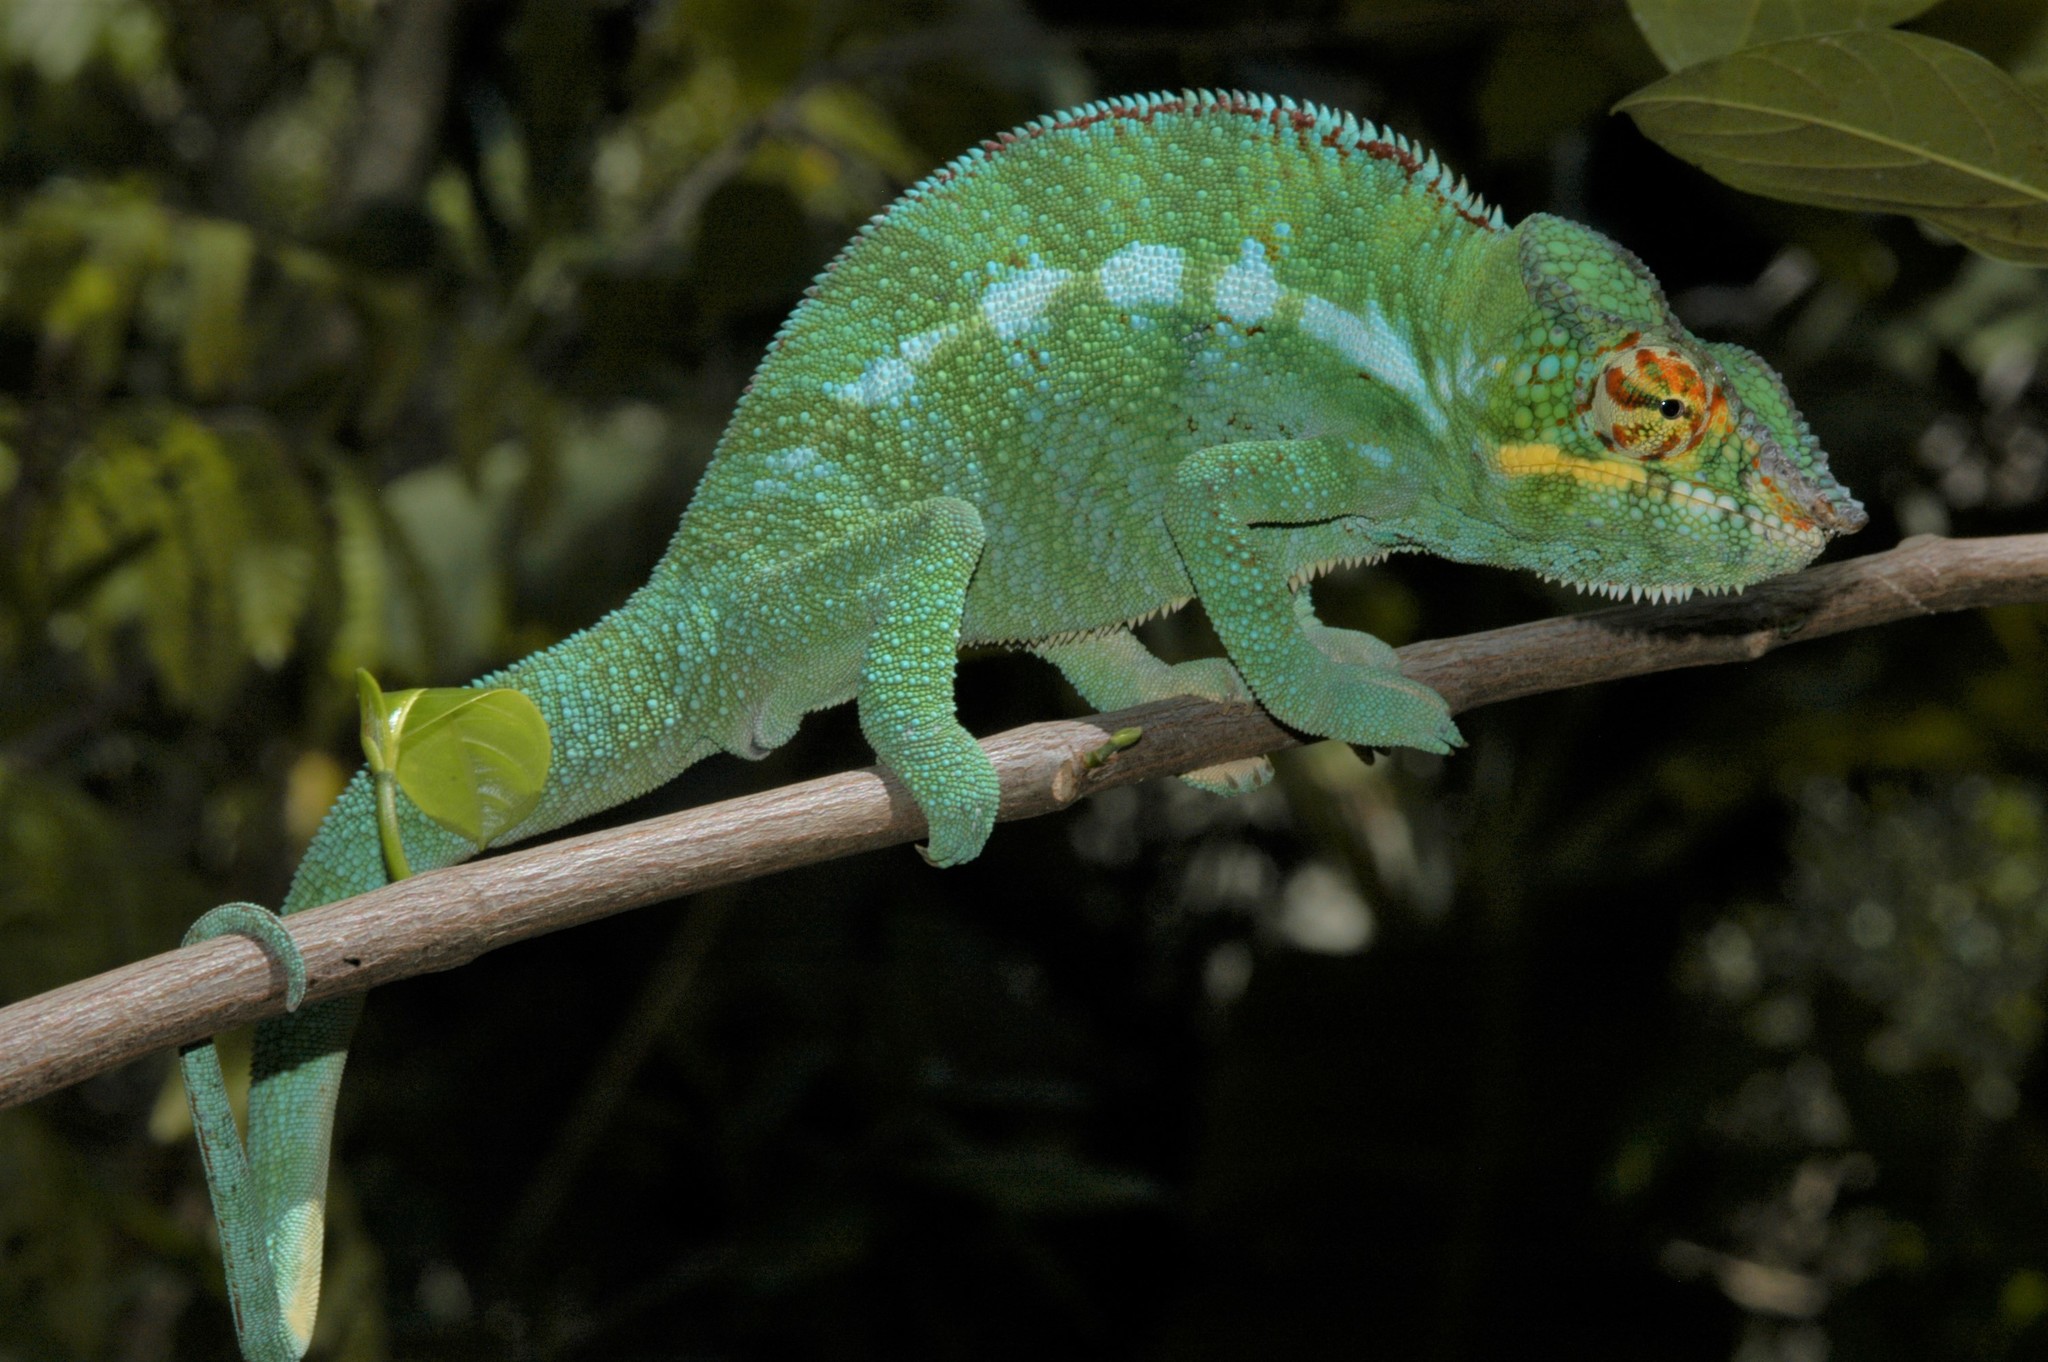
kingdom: Animalia
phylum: Chordata
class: Squamata
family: Chamaeleonidae
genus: Furcifer
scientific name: Furcifer pardalis
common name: Panther chameleon
